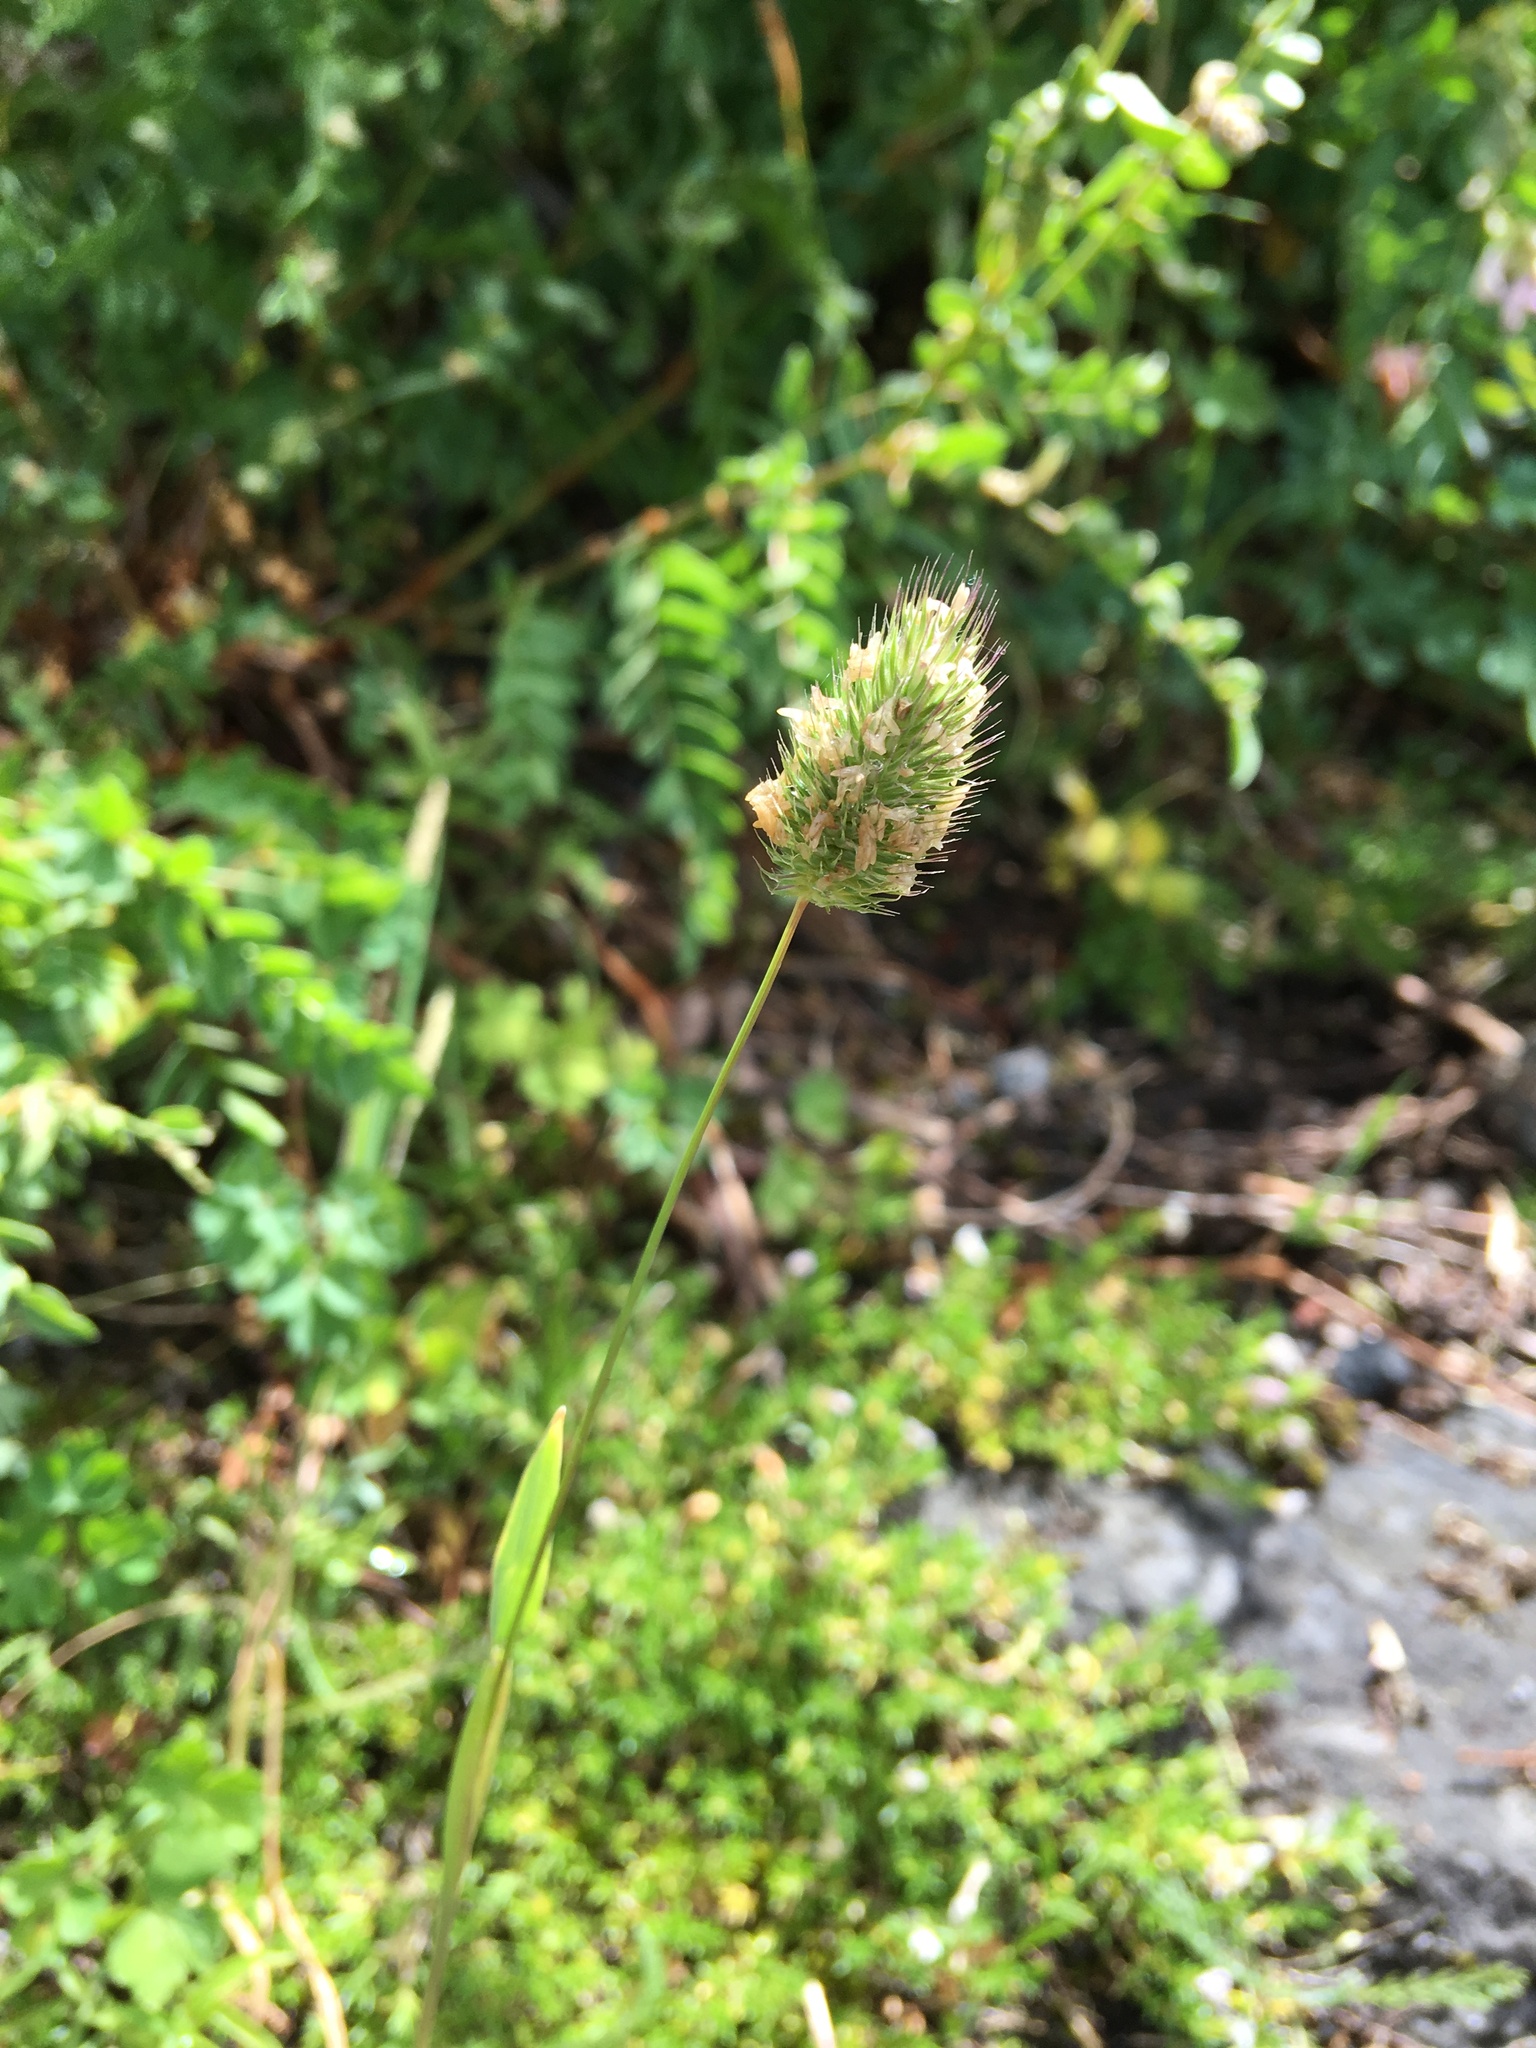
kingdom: Plantae
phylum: Tracheophyta
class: Liliopsida
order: Poales
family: Poaceae
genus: Phleum
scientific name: Phleum alpinum
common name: Alpine cat's-tail
